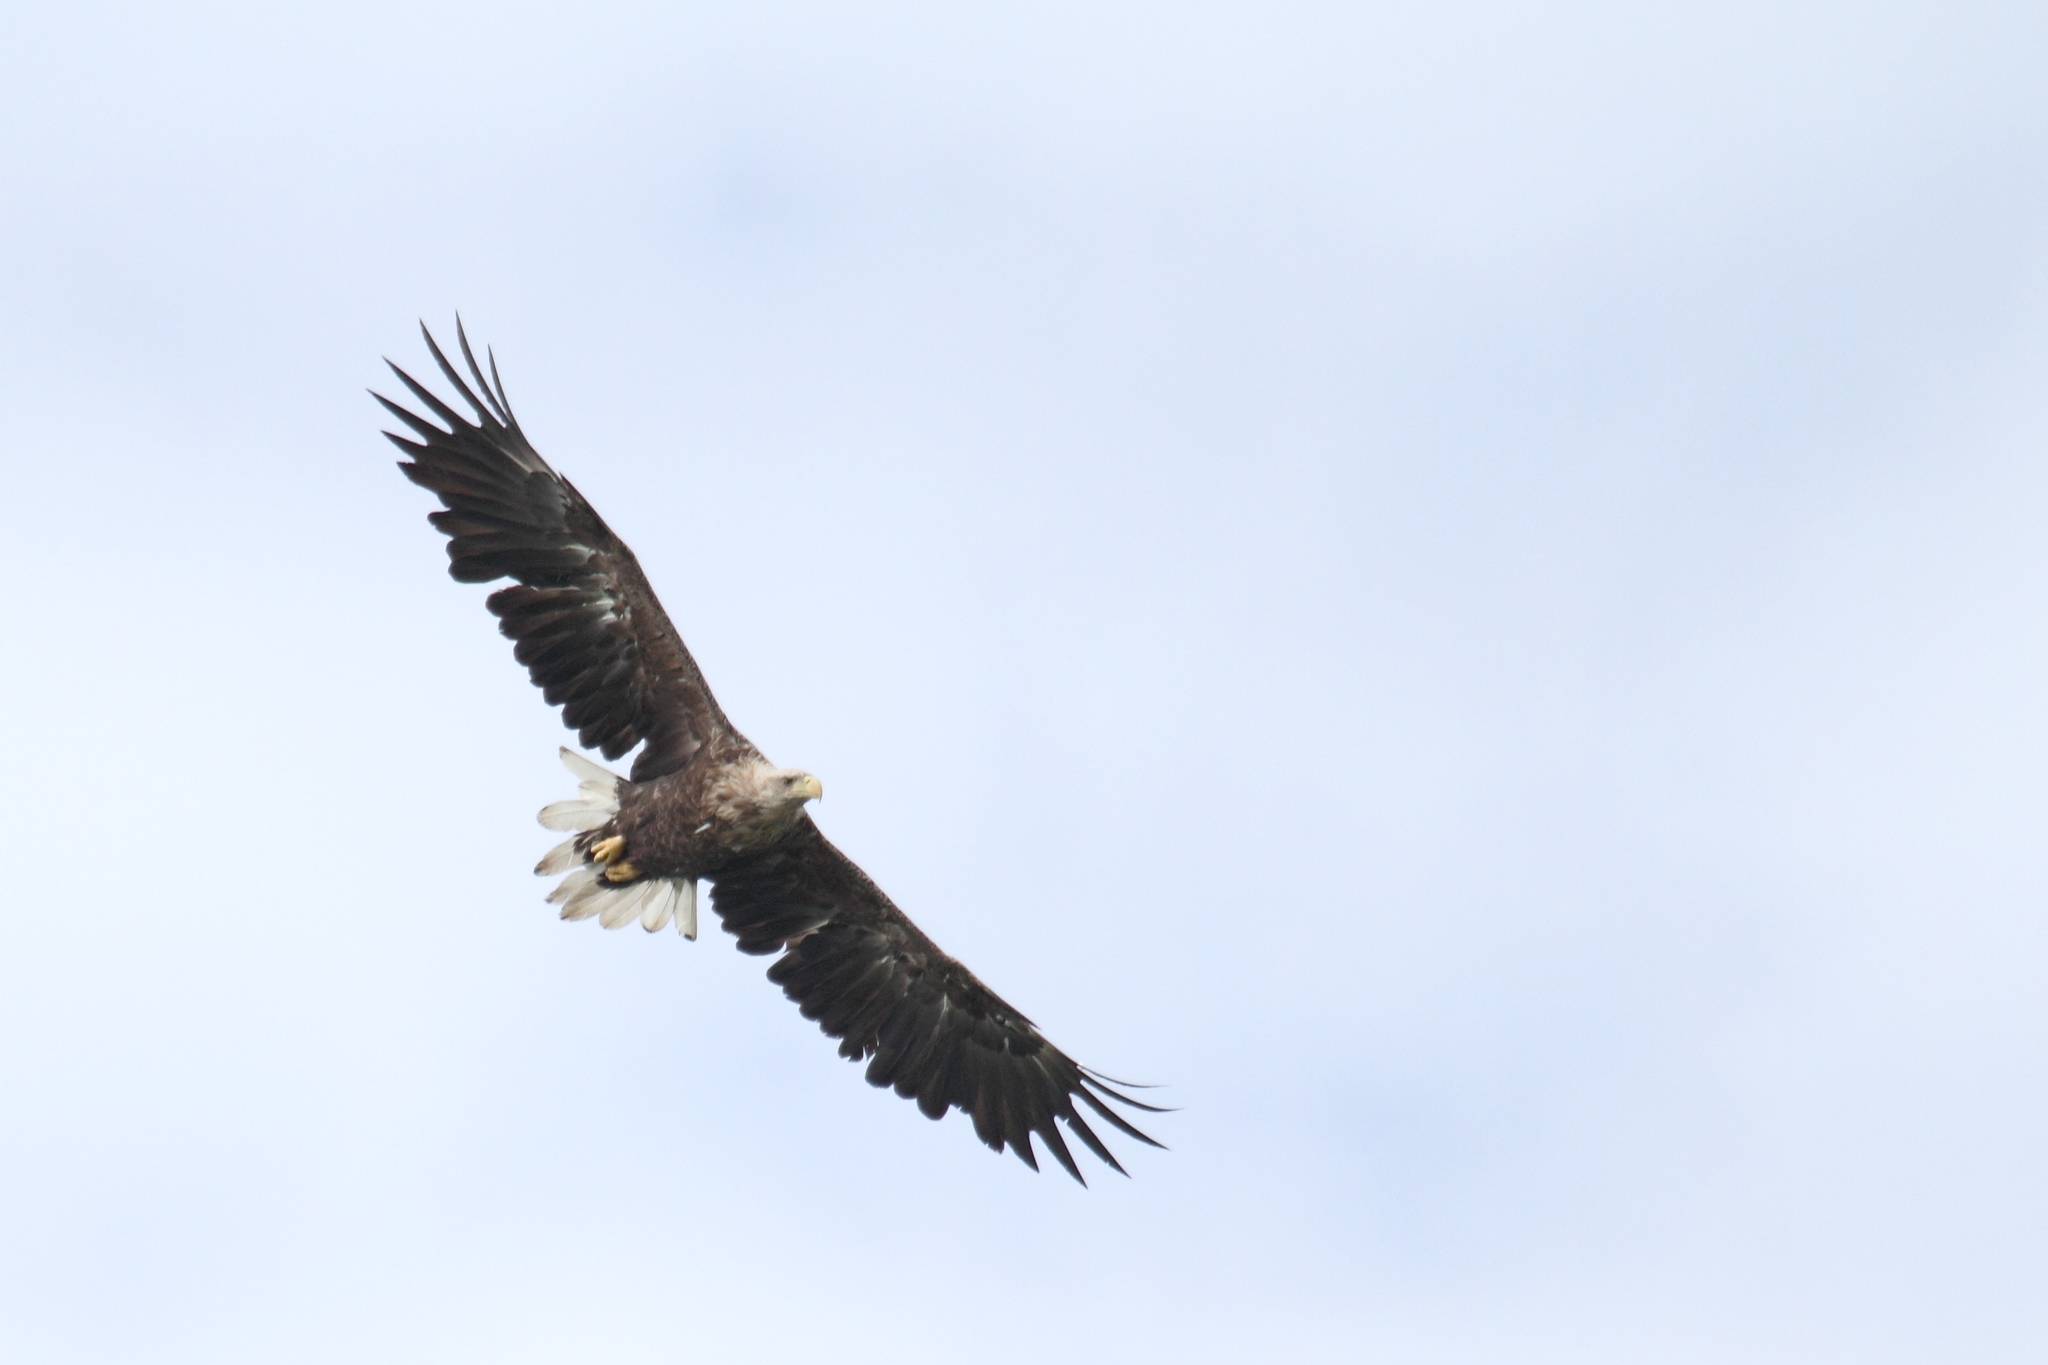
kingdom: Animalia
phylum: Chordata
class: Aves
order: Accipitriformes
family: Accipitridae
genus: Haliaeetus
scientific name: Haliaeetus albicilla
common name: White-tailed eagle
